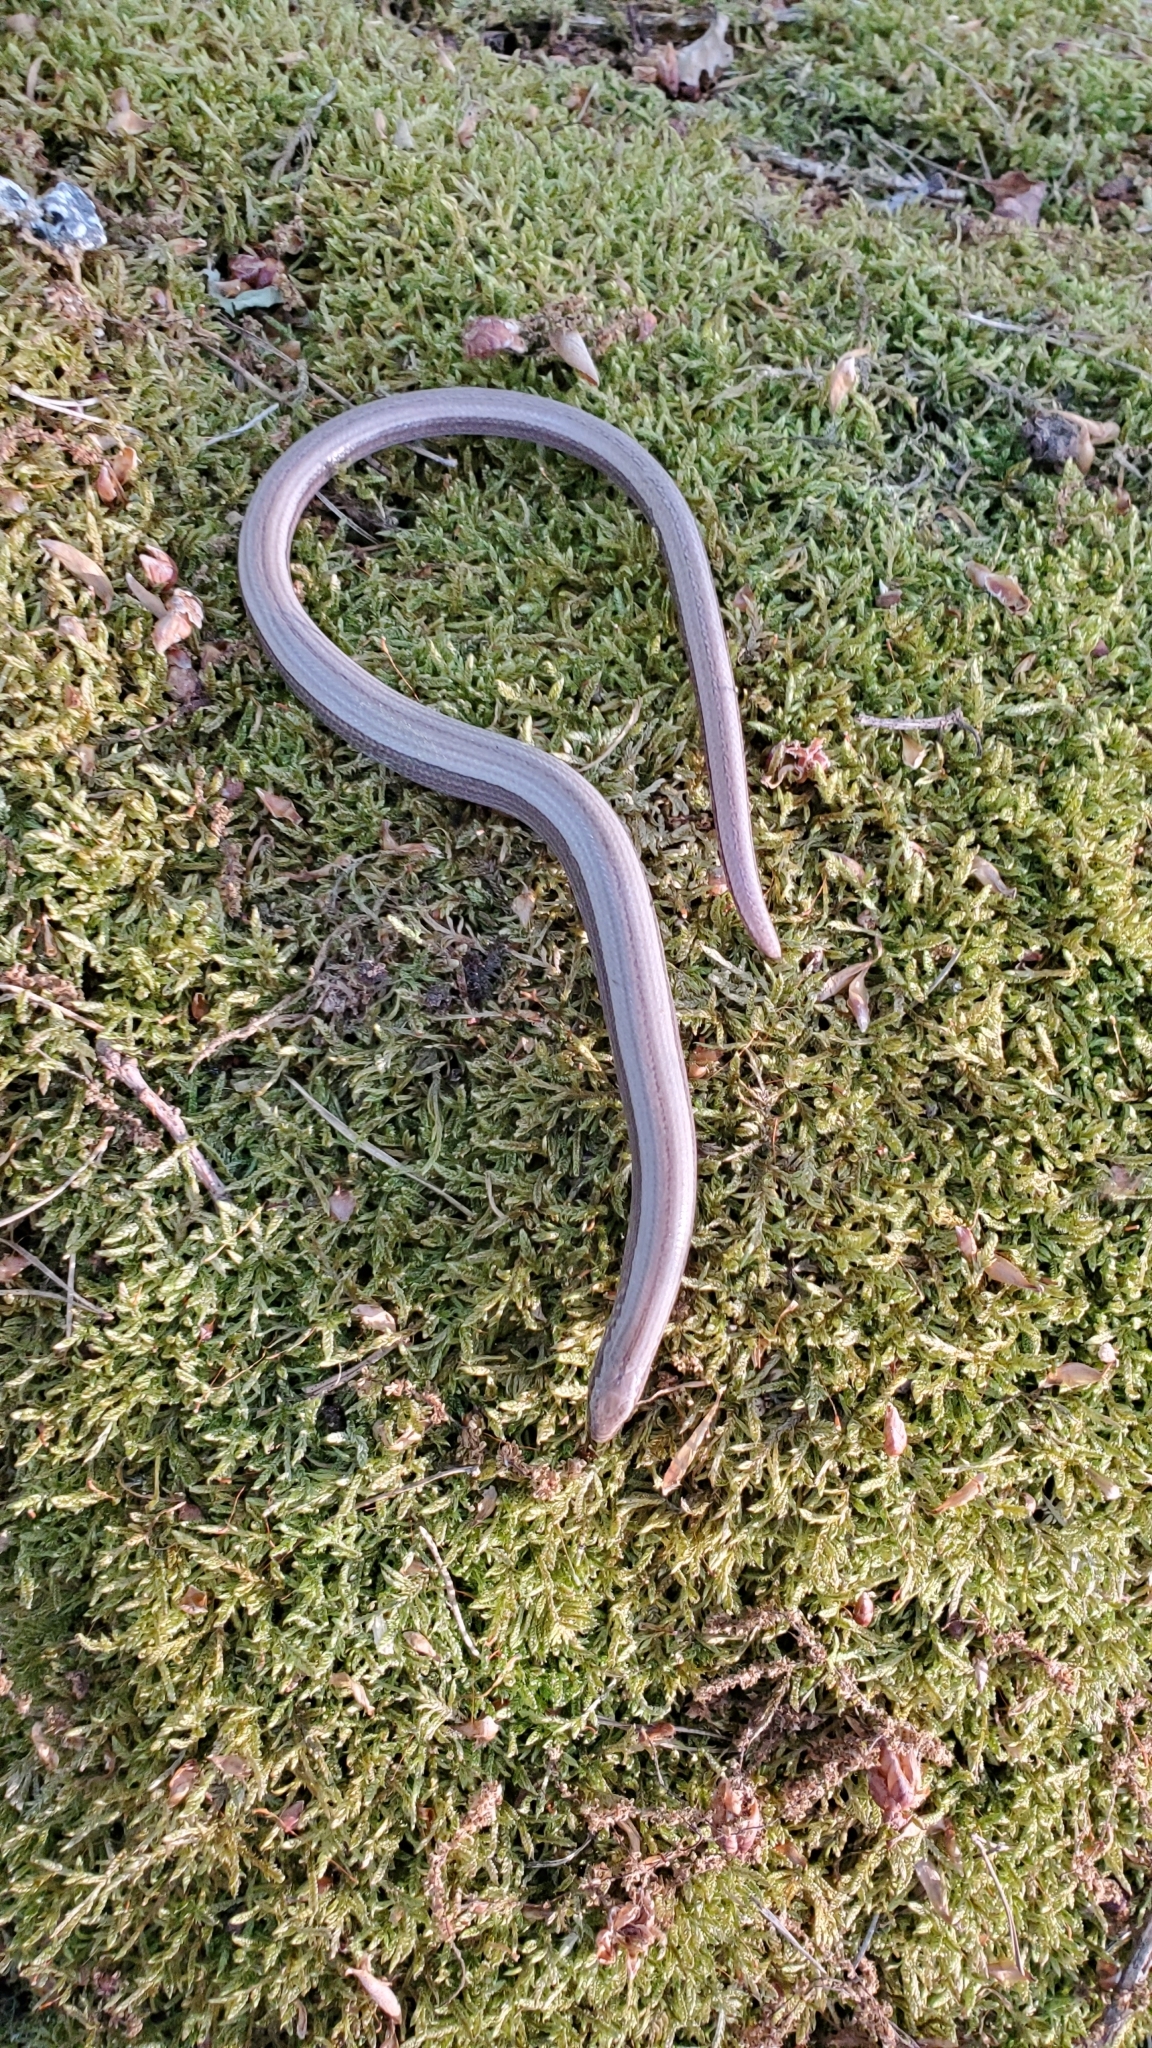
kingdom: Animalia
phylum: Chordata
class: Squamata
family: Anguidae
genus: Anguis
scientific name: Anguis fragilis
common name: Slow worm
